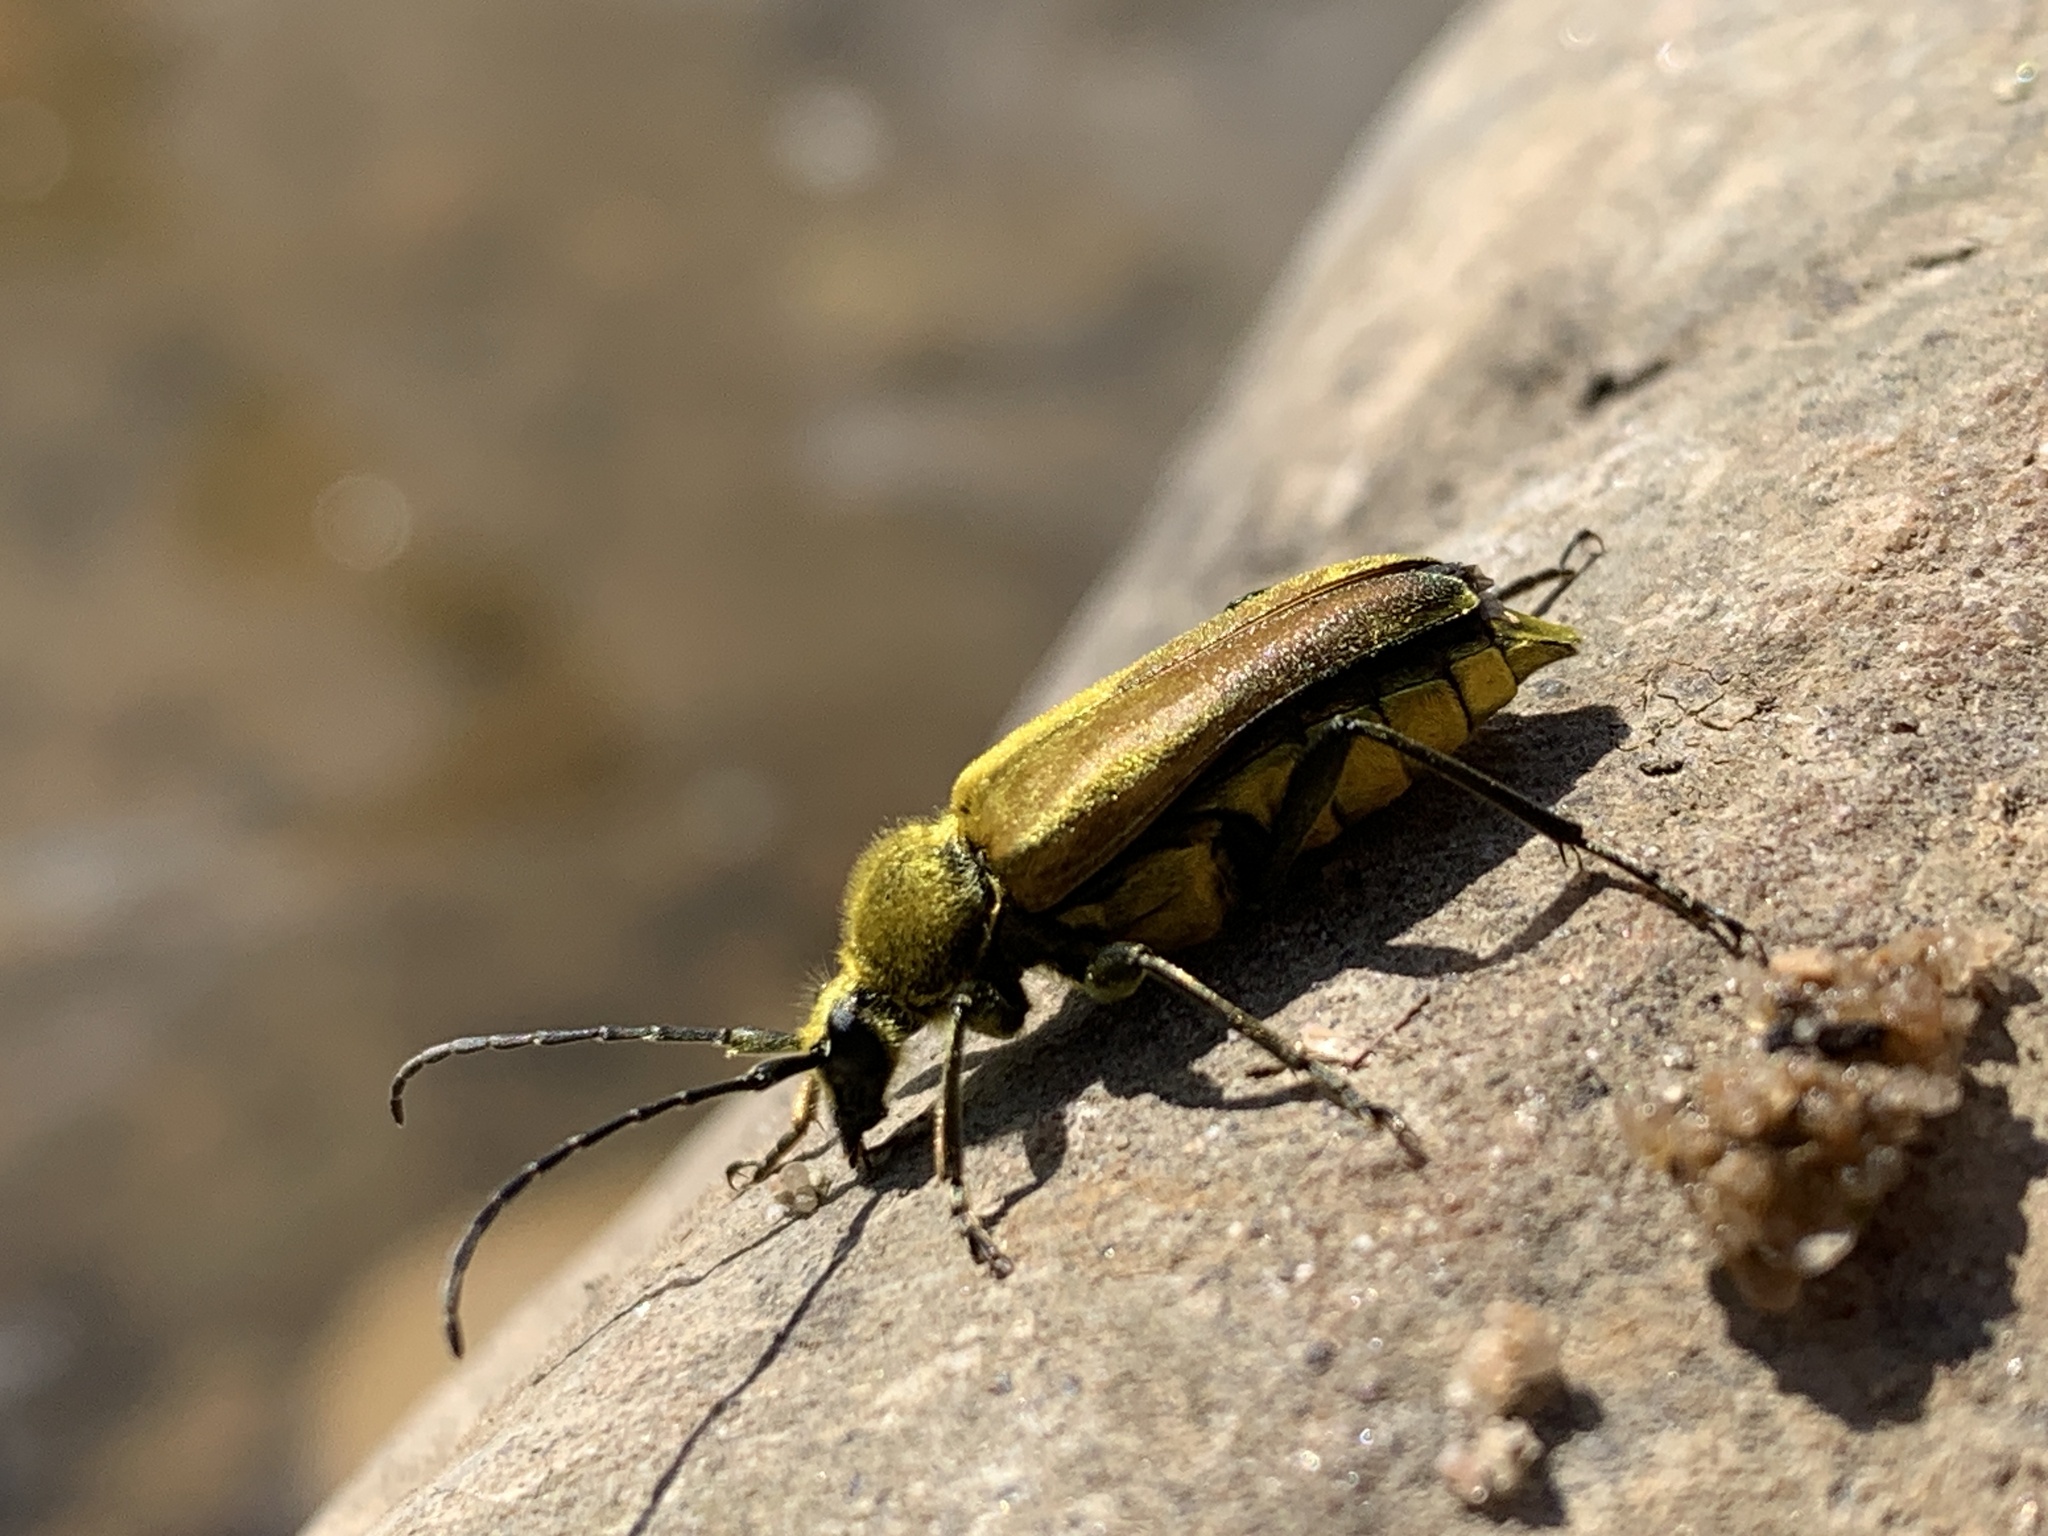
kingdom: Animalia
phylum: Arthropoda
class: Insecta
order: Coleoptera
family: Cerambycidae
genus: Cosmosalia
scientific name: Cosmosalia chrysocoma
